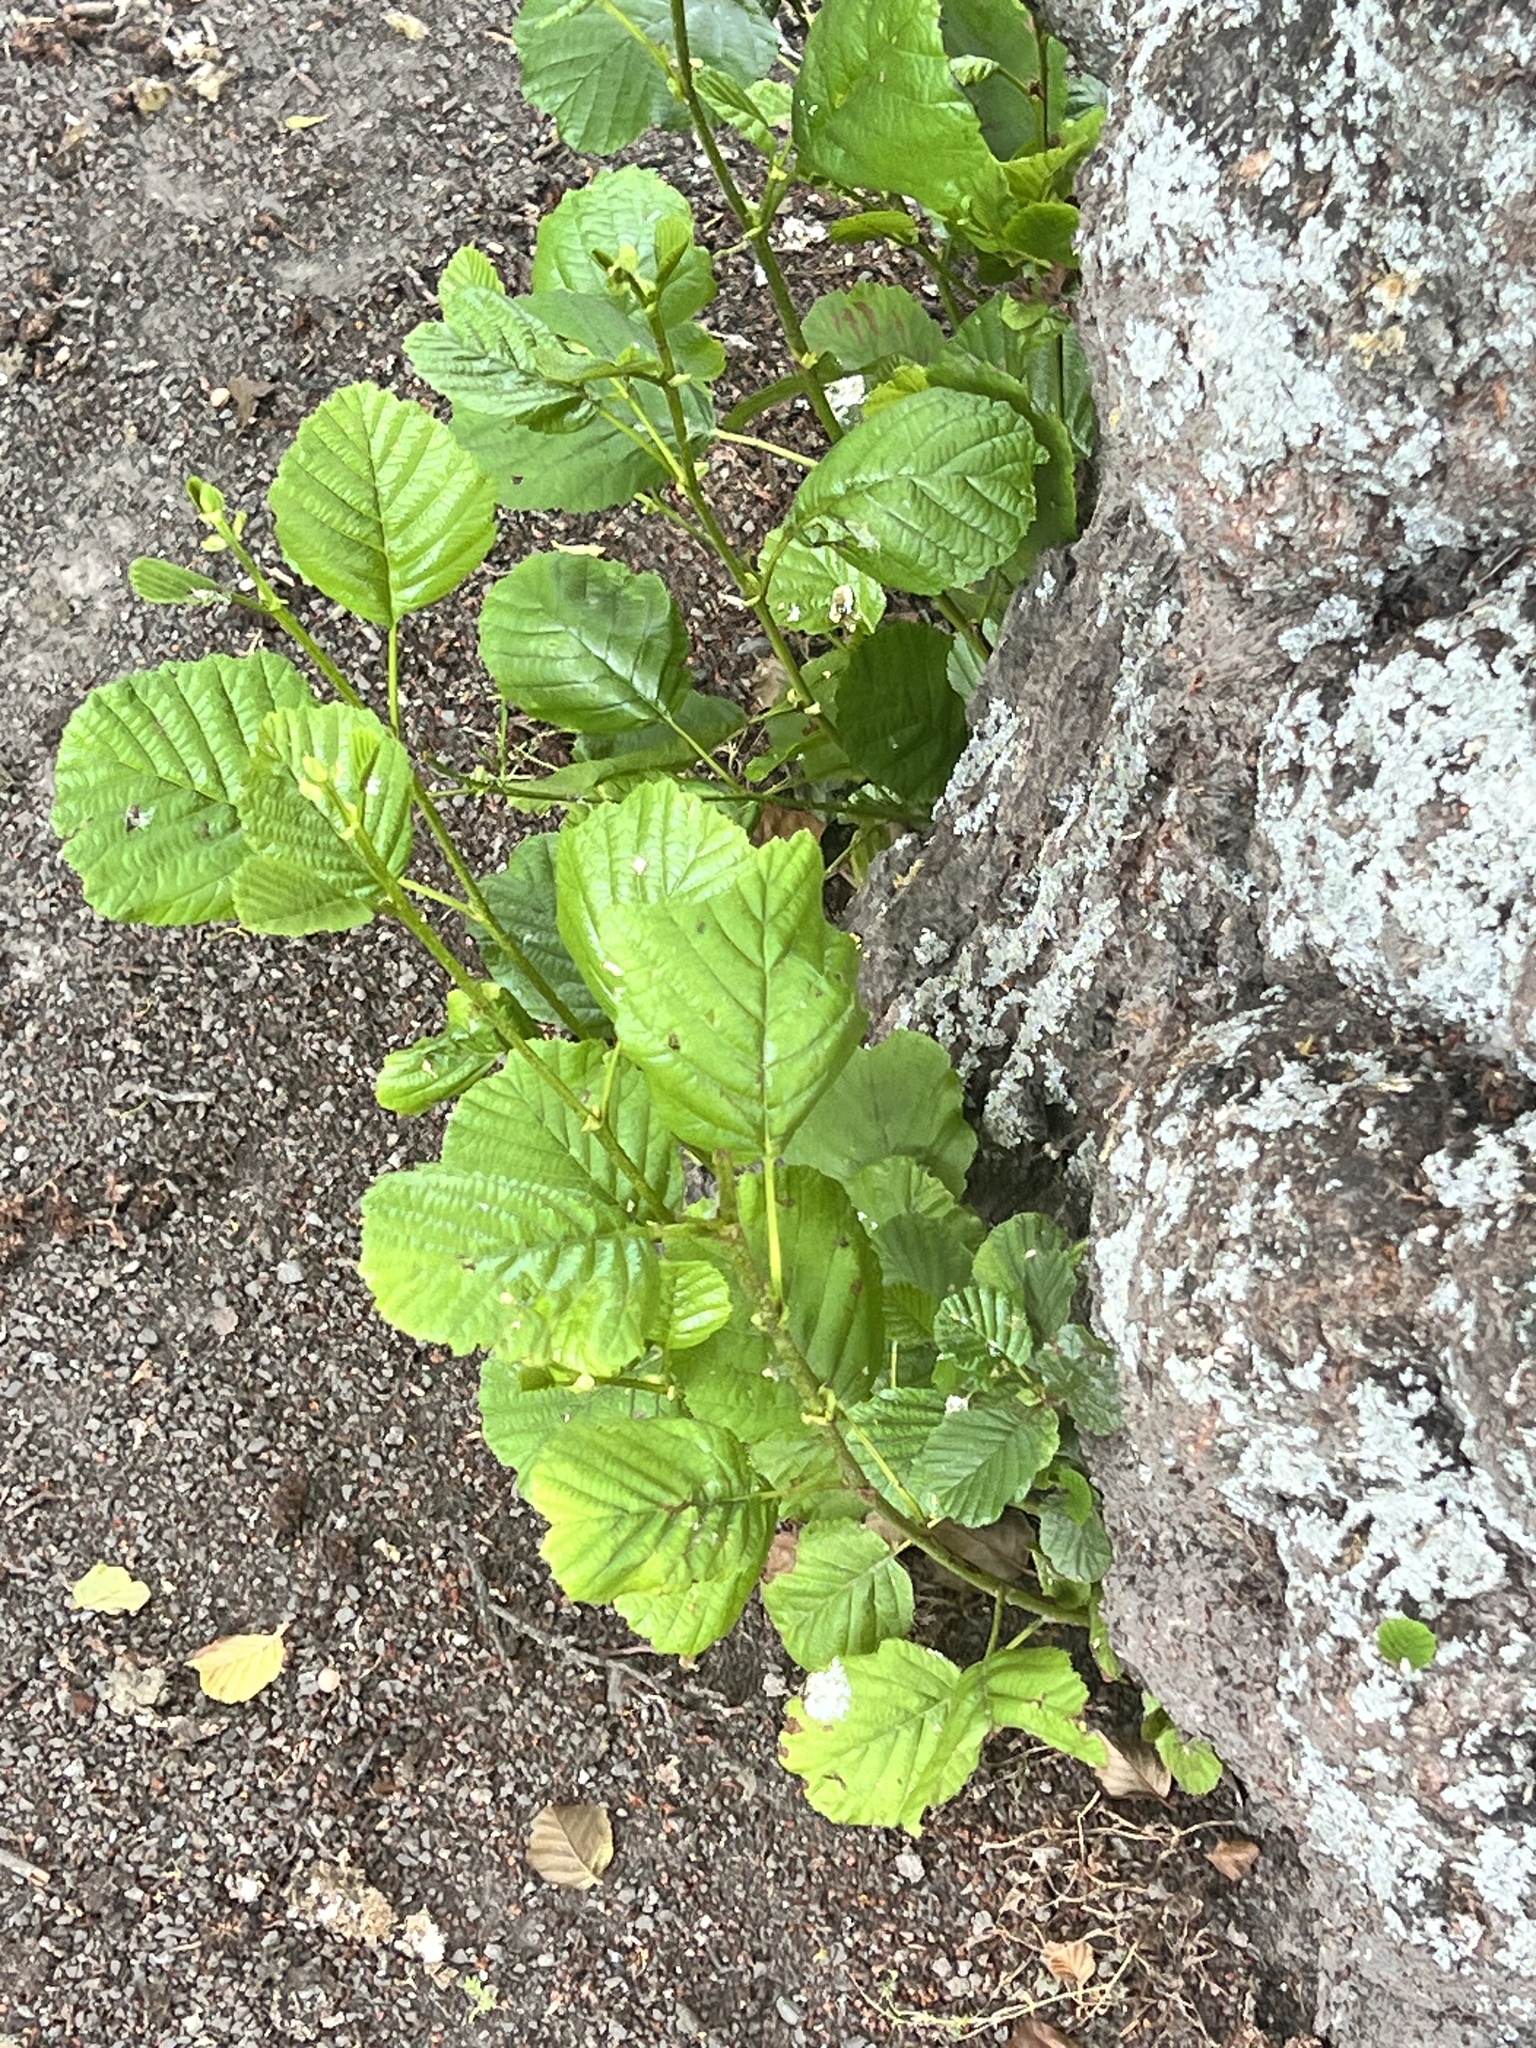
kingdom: Plantae
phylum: Tracheophyta
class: Magnoliopsida
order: Fagales
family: Betulaceae
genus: Alnus
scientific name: Alnus glutinosa
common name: Black alder
